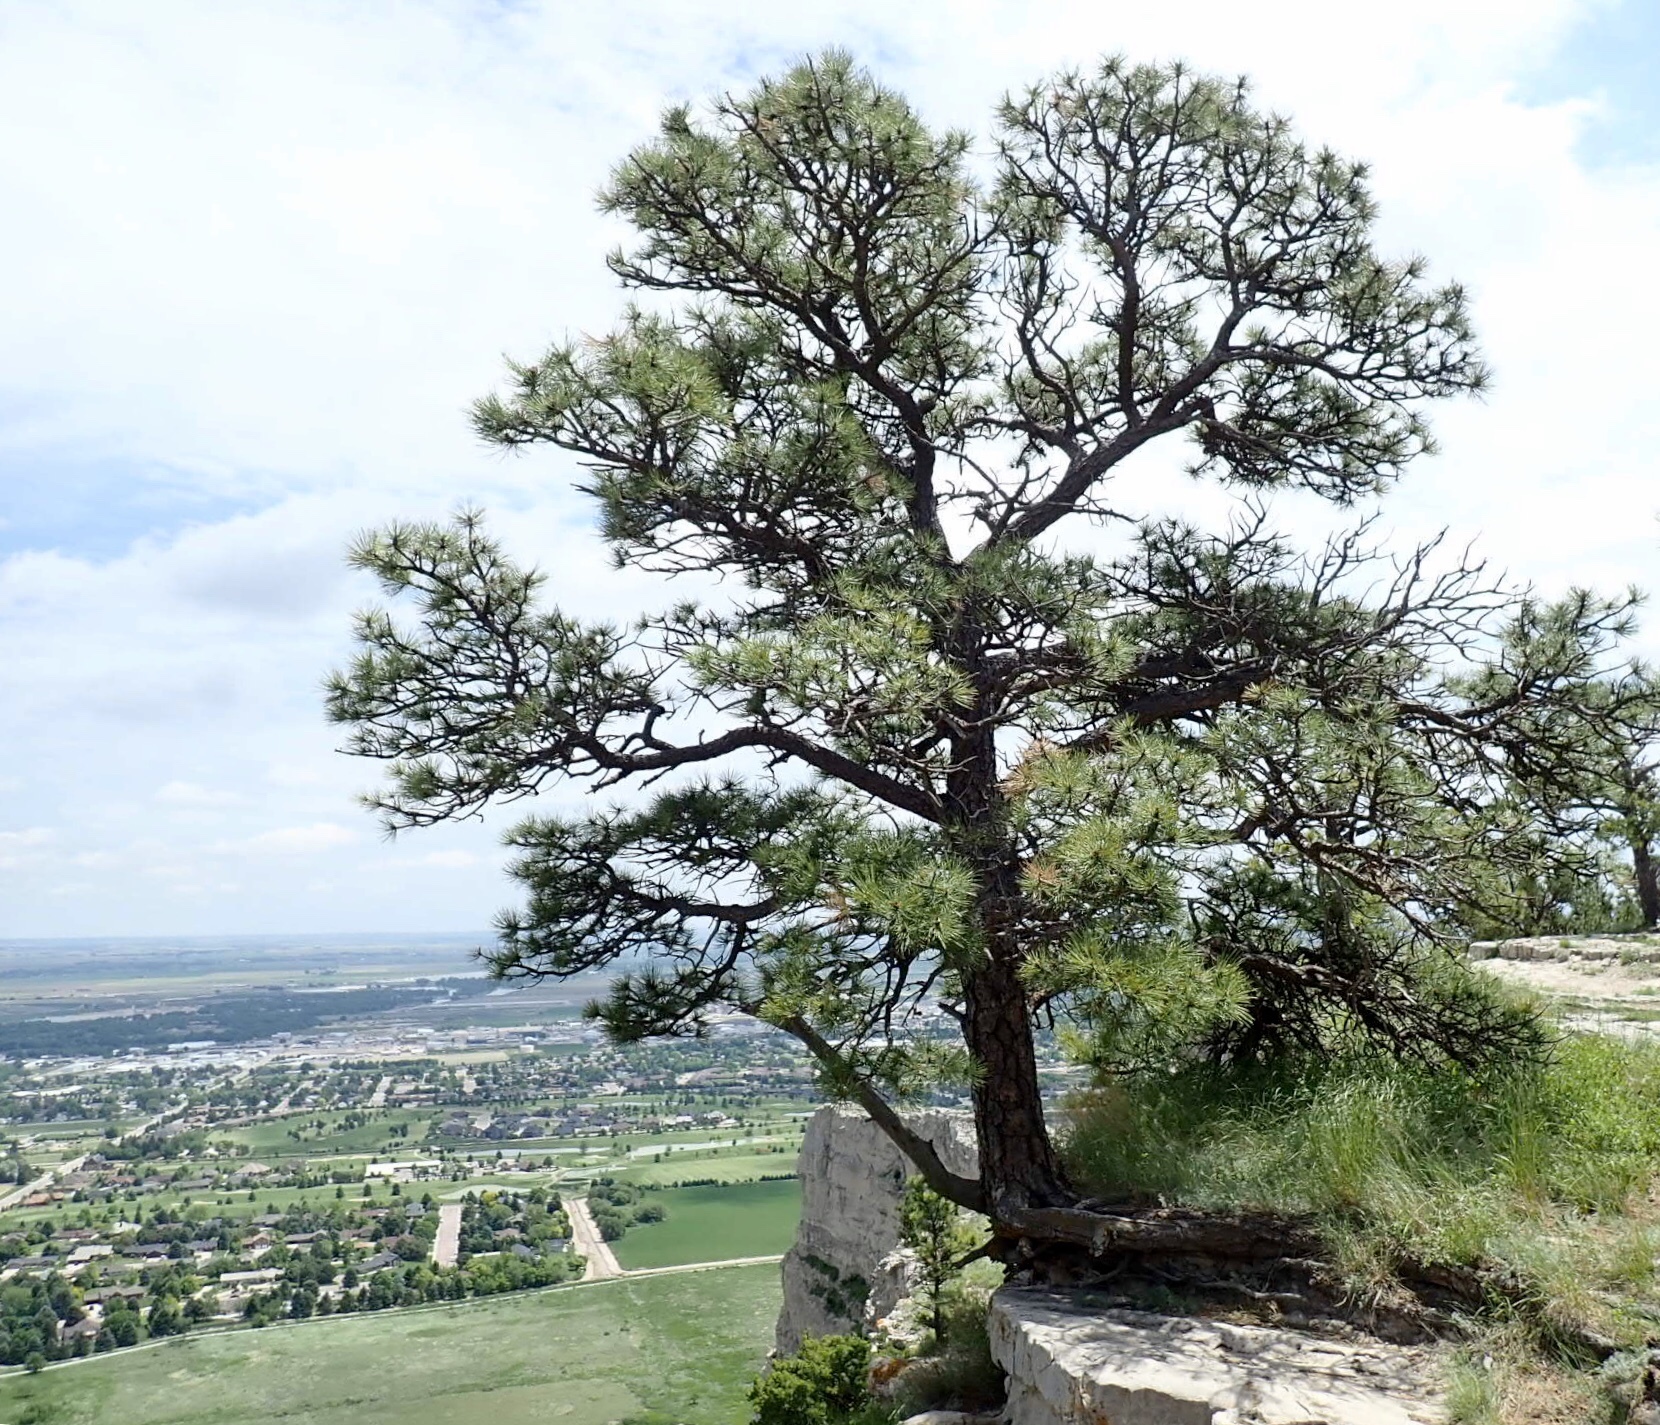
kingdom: Plantae
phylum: Tracheophyta
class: Pinopsida
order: Pinales
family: Pinaceae
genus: Pinus
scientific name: Pinus ponderosa
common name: Western yellow-pine
